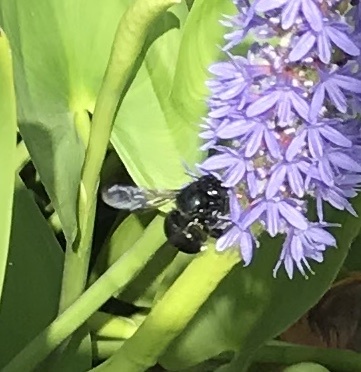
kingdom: Animalia
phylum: Arthropoda
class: Insecta
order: Hymenoptera
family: Apidae
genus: Xylocopa
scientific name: Xylocopa micans
